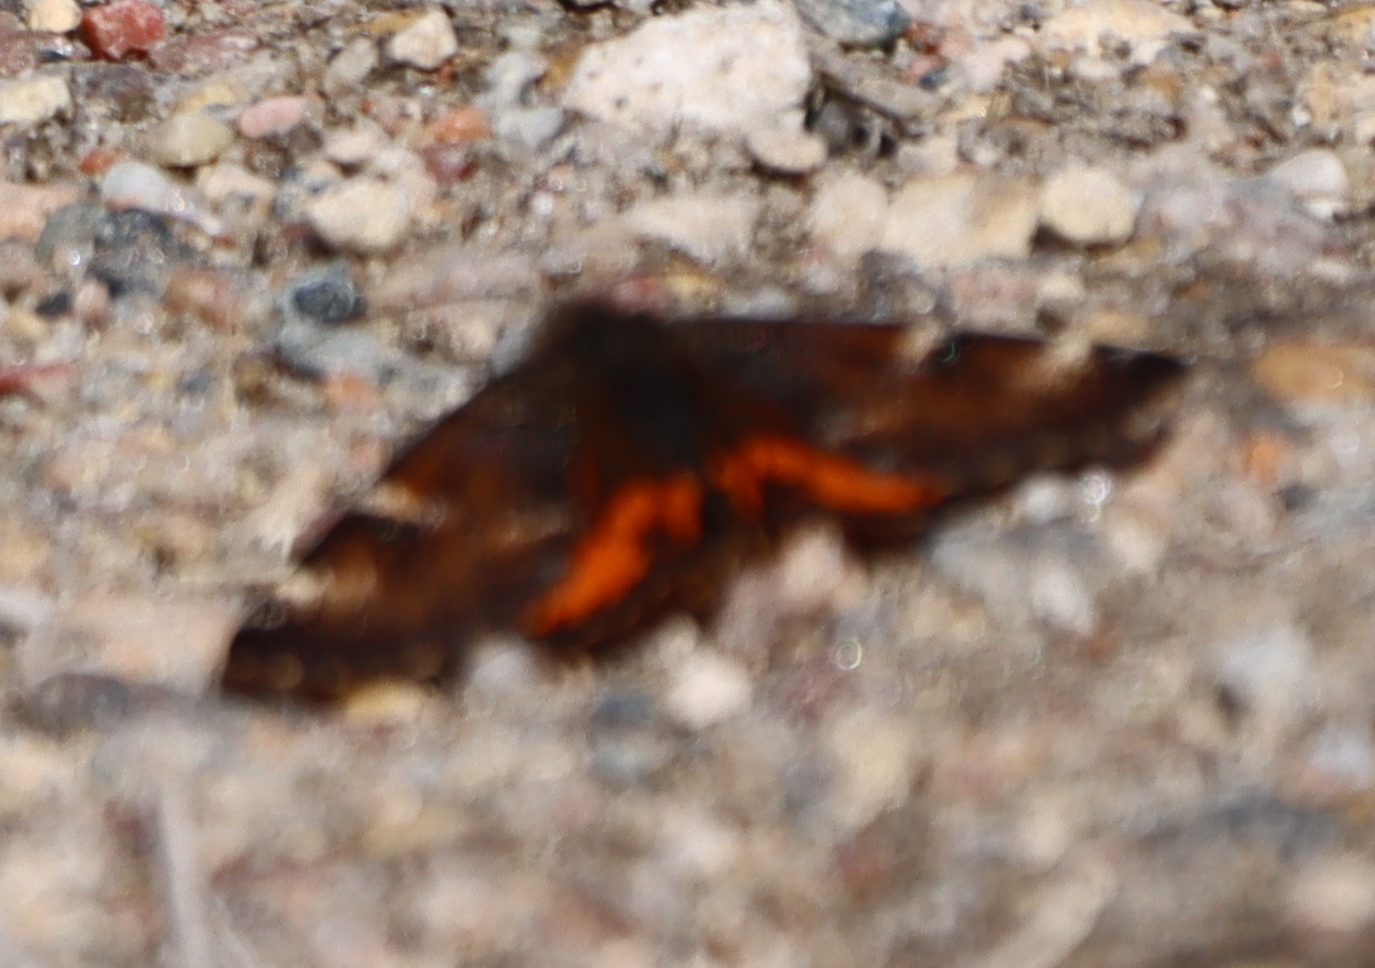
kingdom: Animalia
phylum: Arthropoda
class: Insecta
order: Lepidoptera
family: Geometridae
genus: Archiearis
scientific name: Archiearis infans
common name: First born geometer
